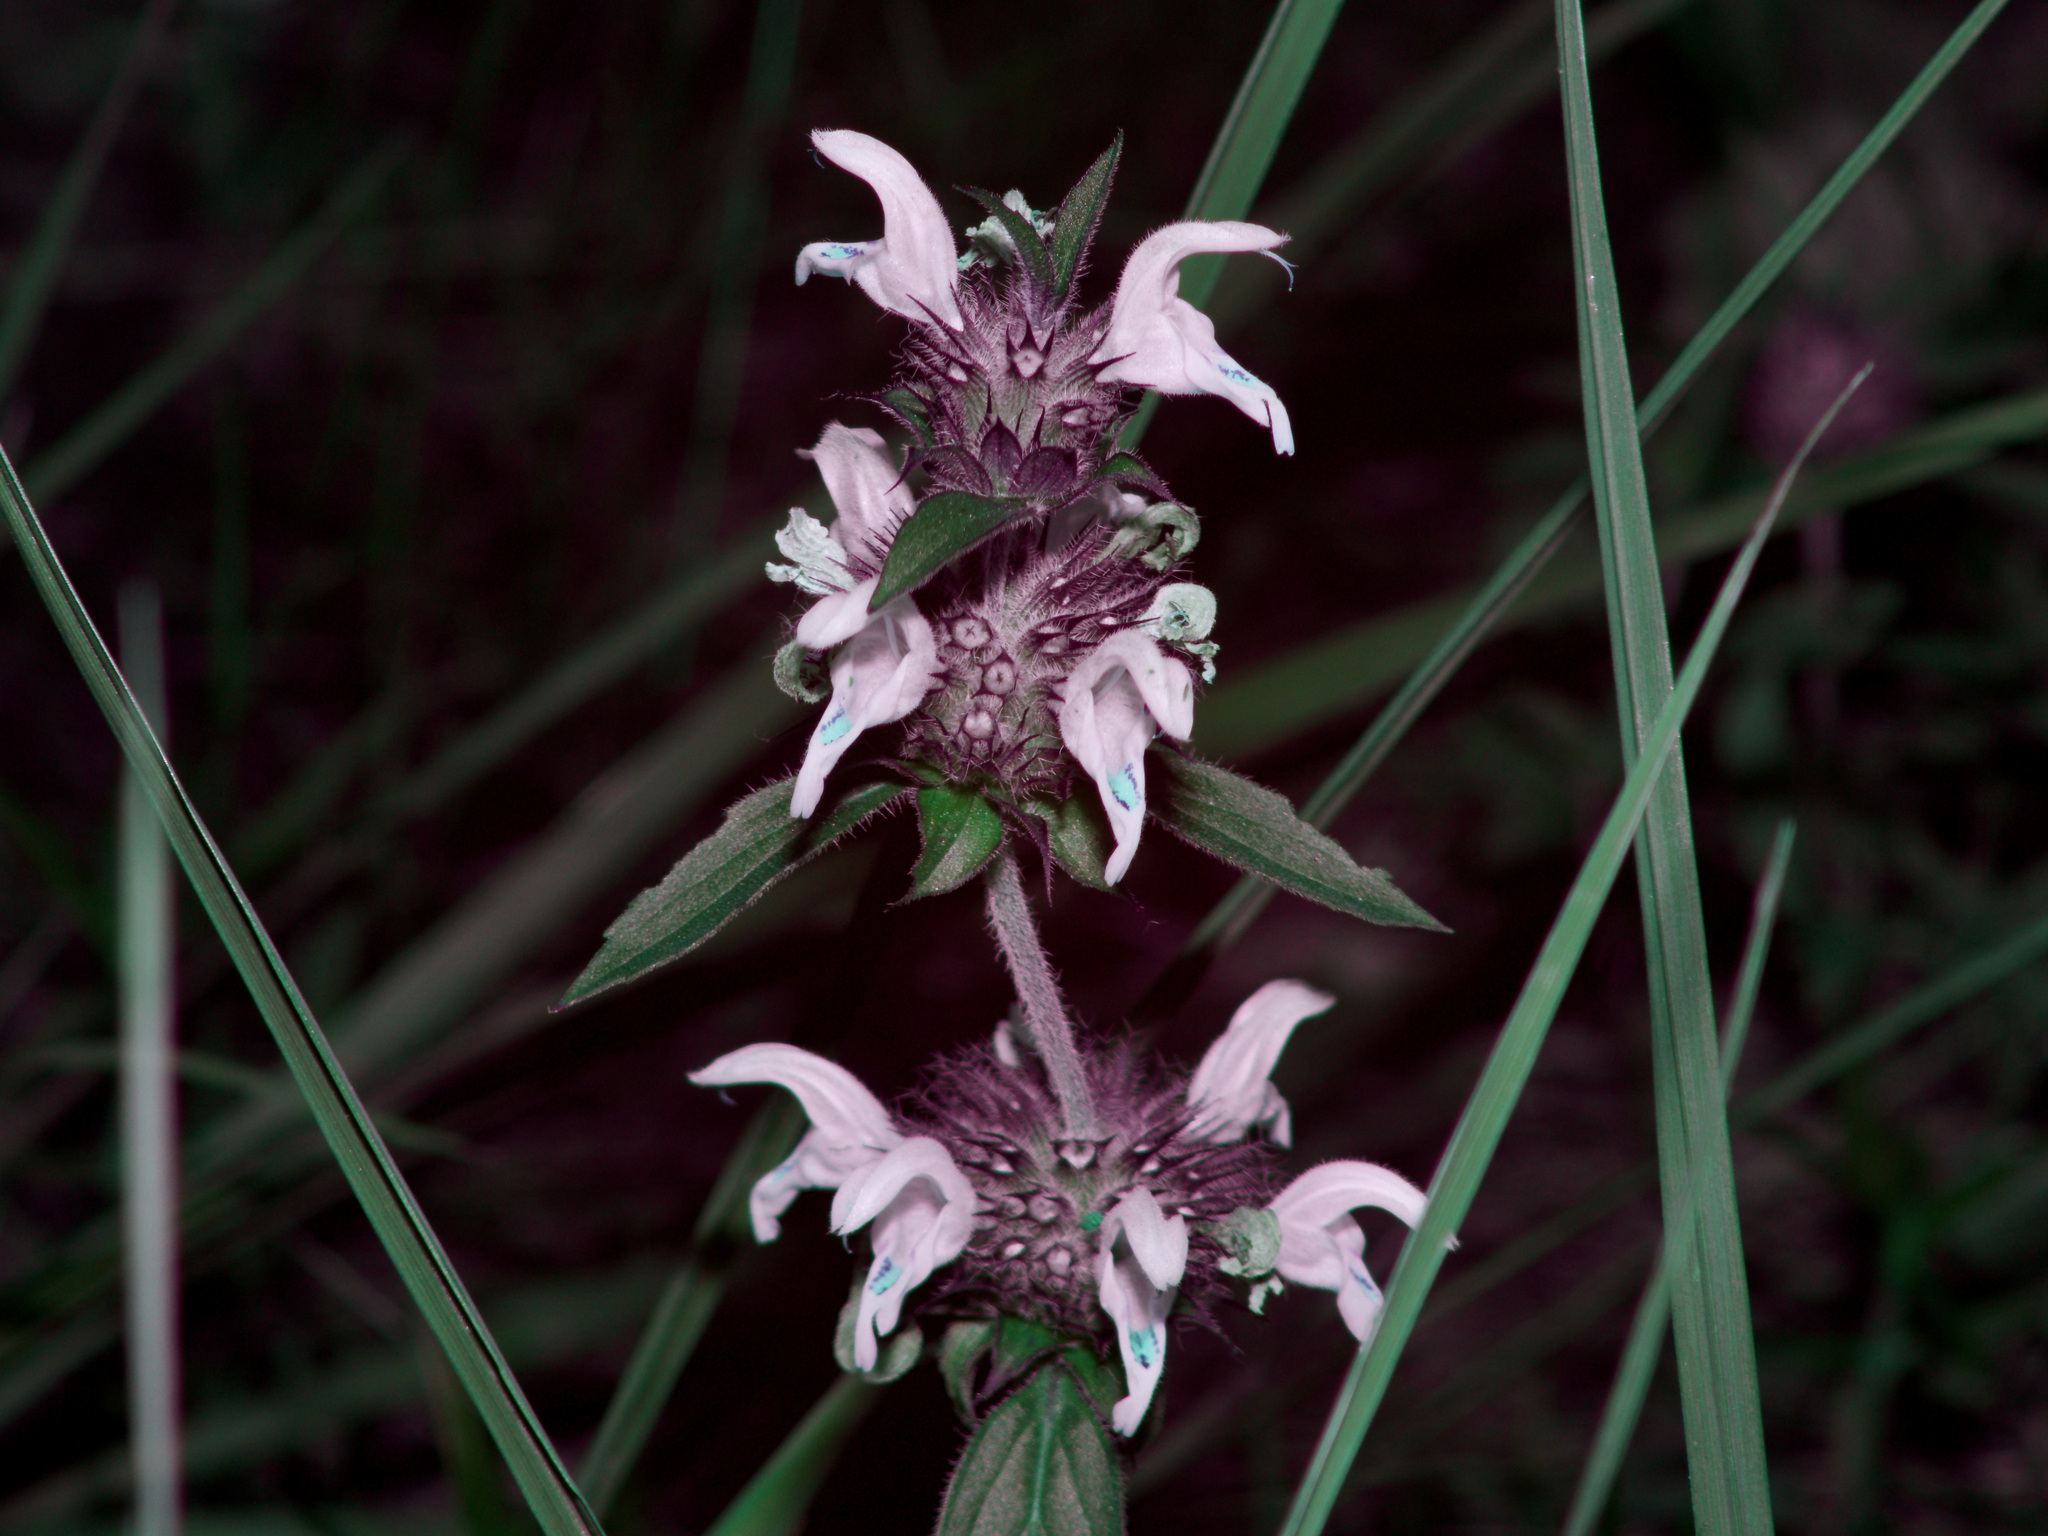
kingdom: Plantae
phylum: Tracheophyta
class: Magnoliopsida
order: Lamiales
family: Lamiaceae
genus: Monarda
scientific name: Monarda clinopodioides
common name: Basil beebalm
